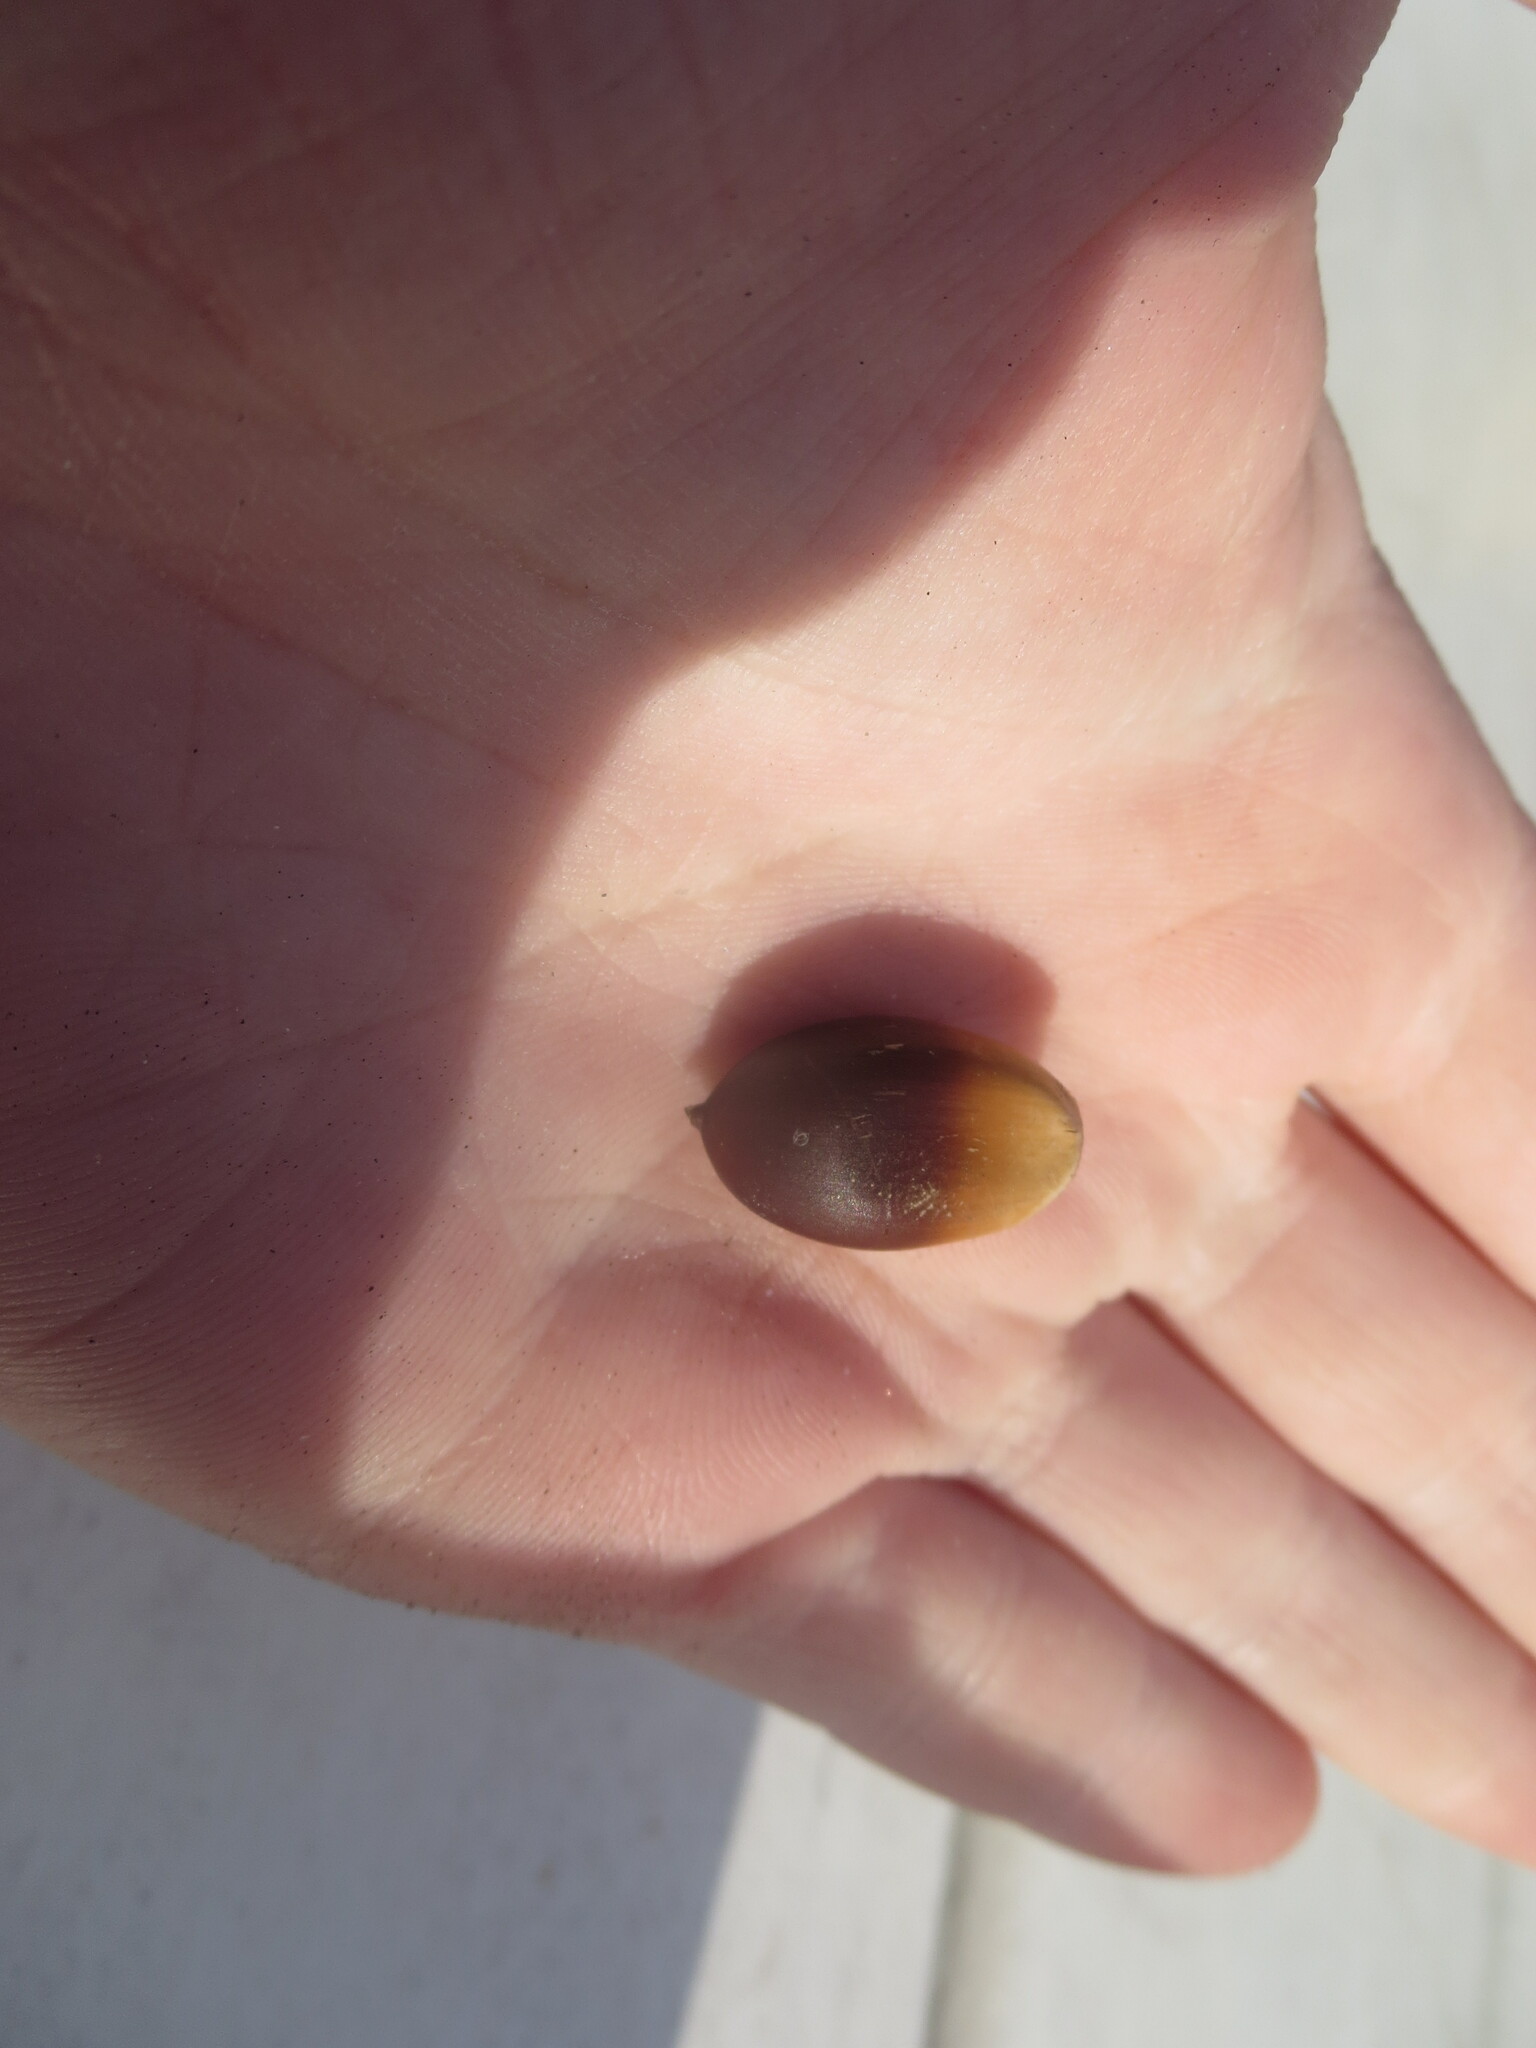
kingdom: Plantae
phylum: Tracheophyta
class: Magnoliopsida
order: Fagales
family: Fagaceae
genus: Quercus
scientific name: Quercus virginiana
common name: Southern live oak
